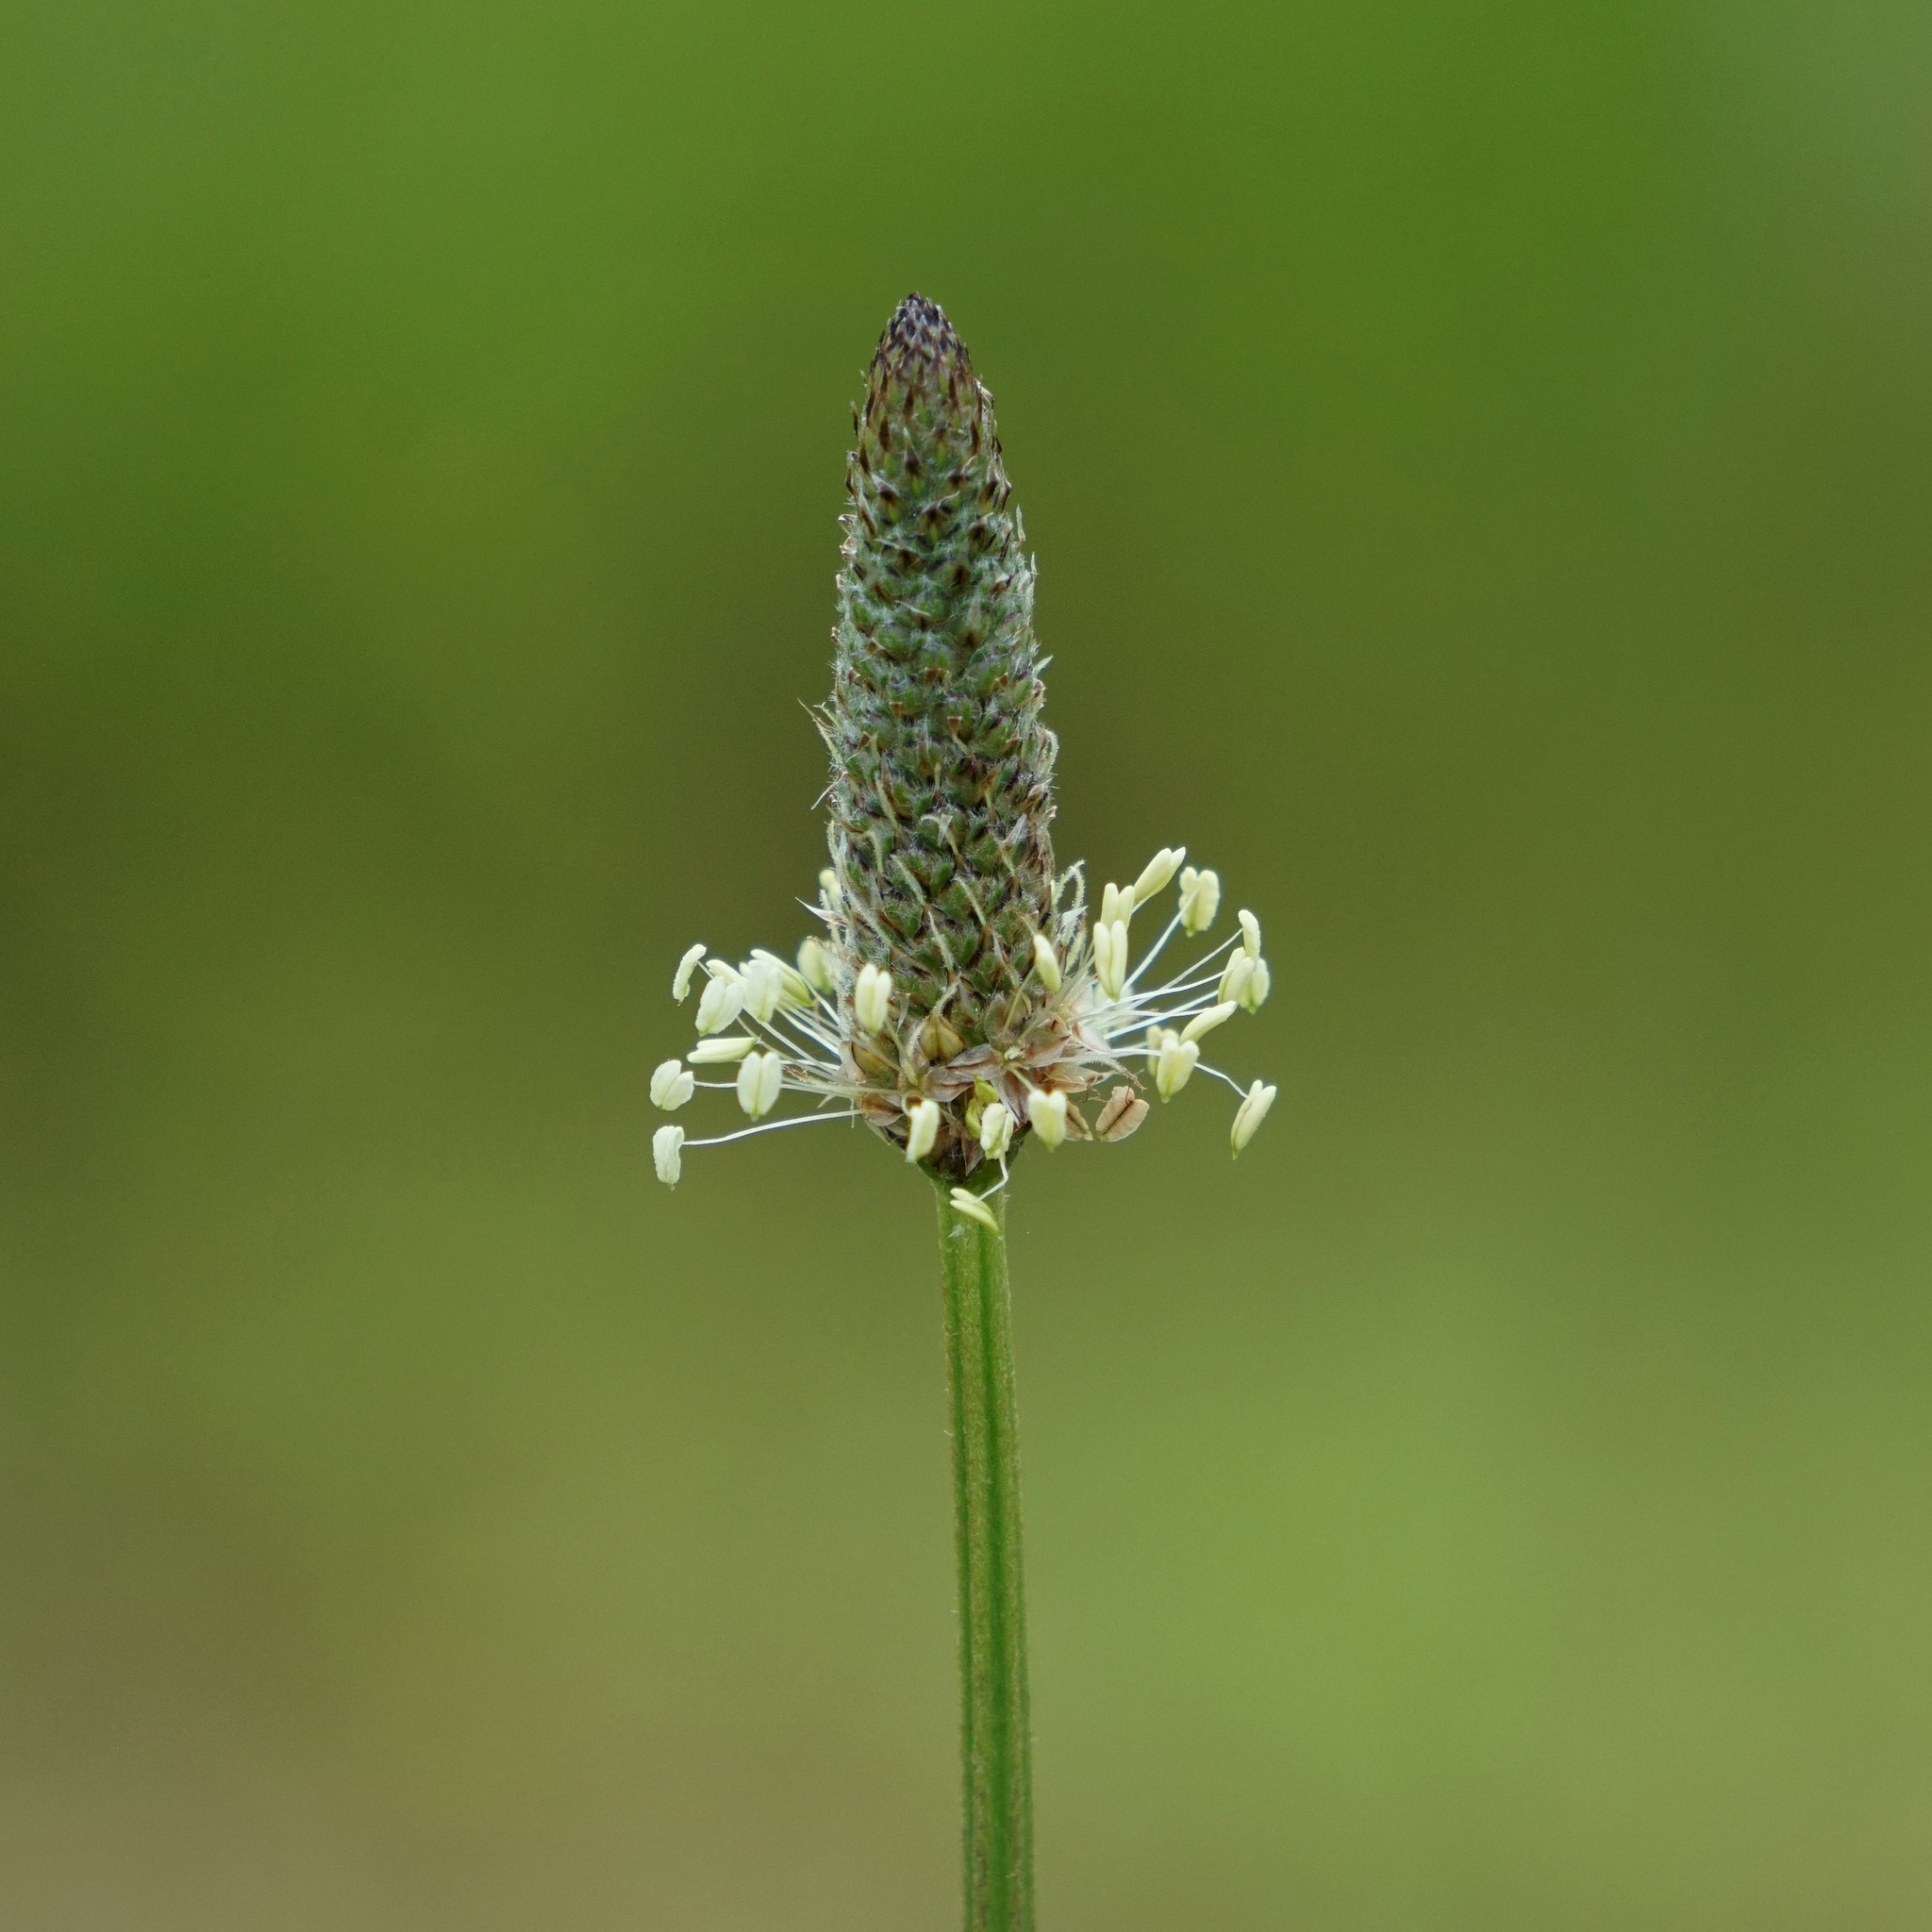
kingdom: Plantae
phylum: Tracheophyta
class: Magnoliopsida
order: Lamiales
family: Plantaginaceae
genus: Plantago
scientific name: Plantago lanceolata
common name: Ribwort plantain
